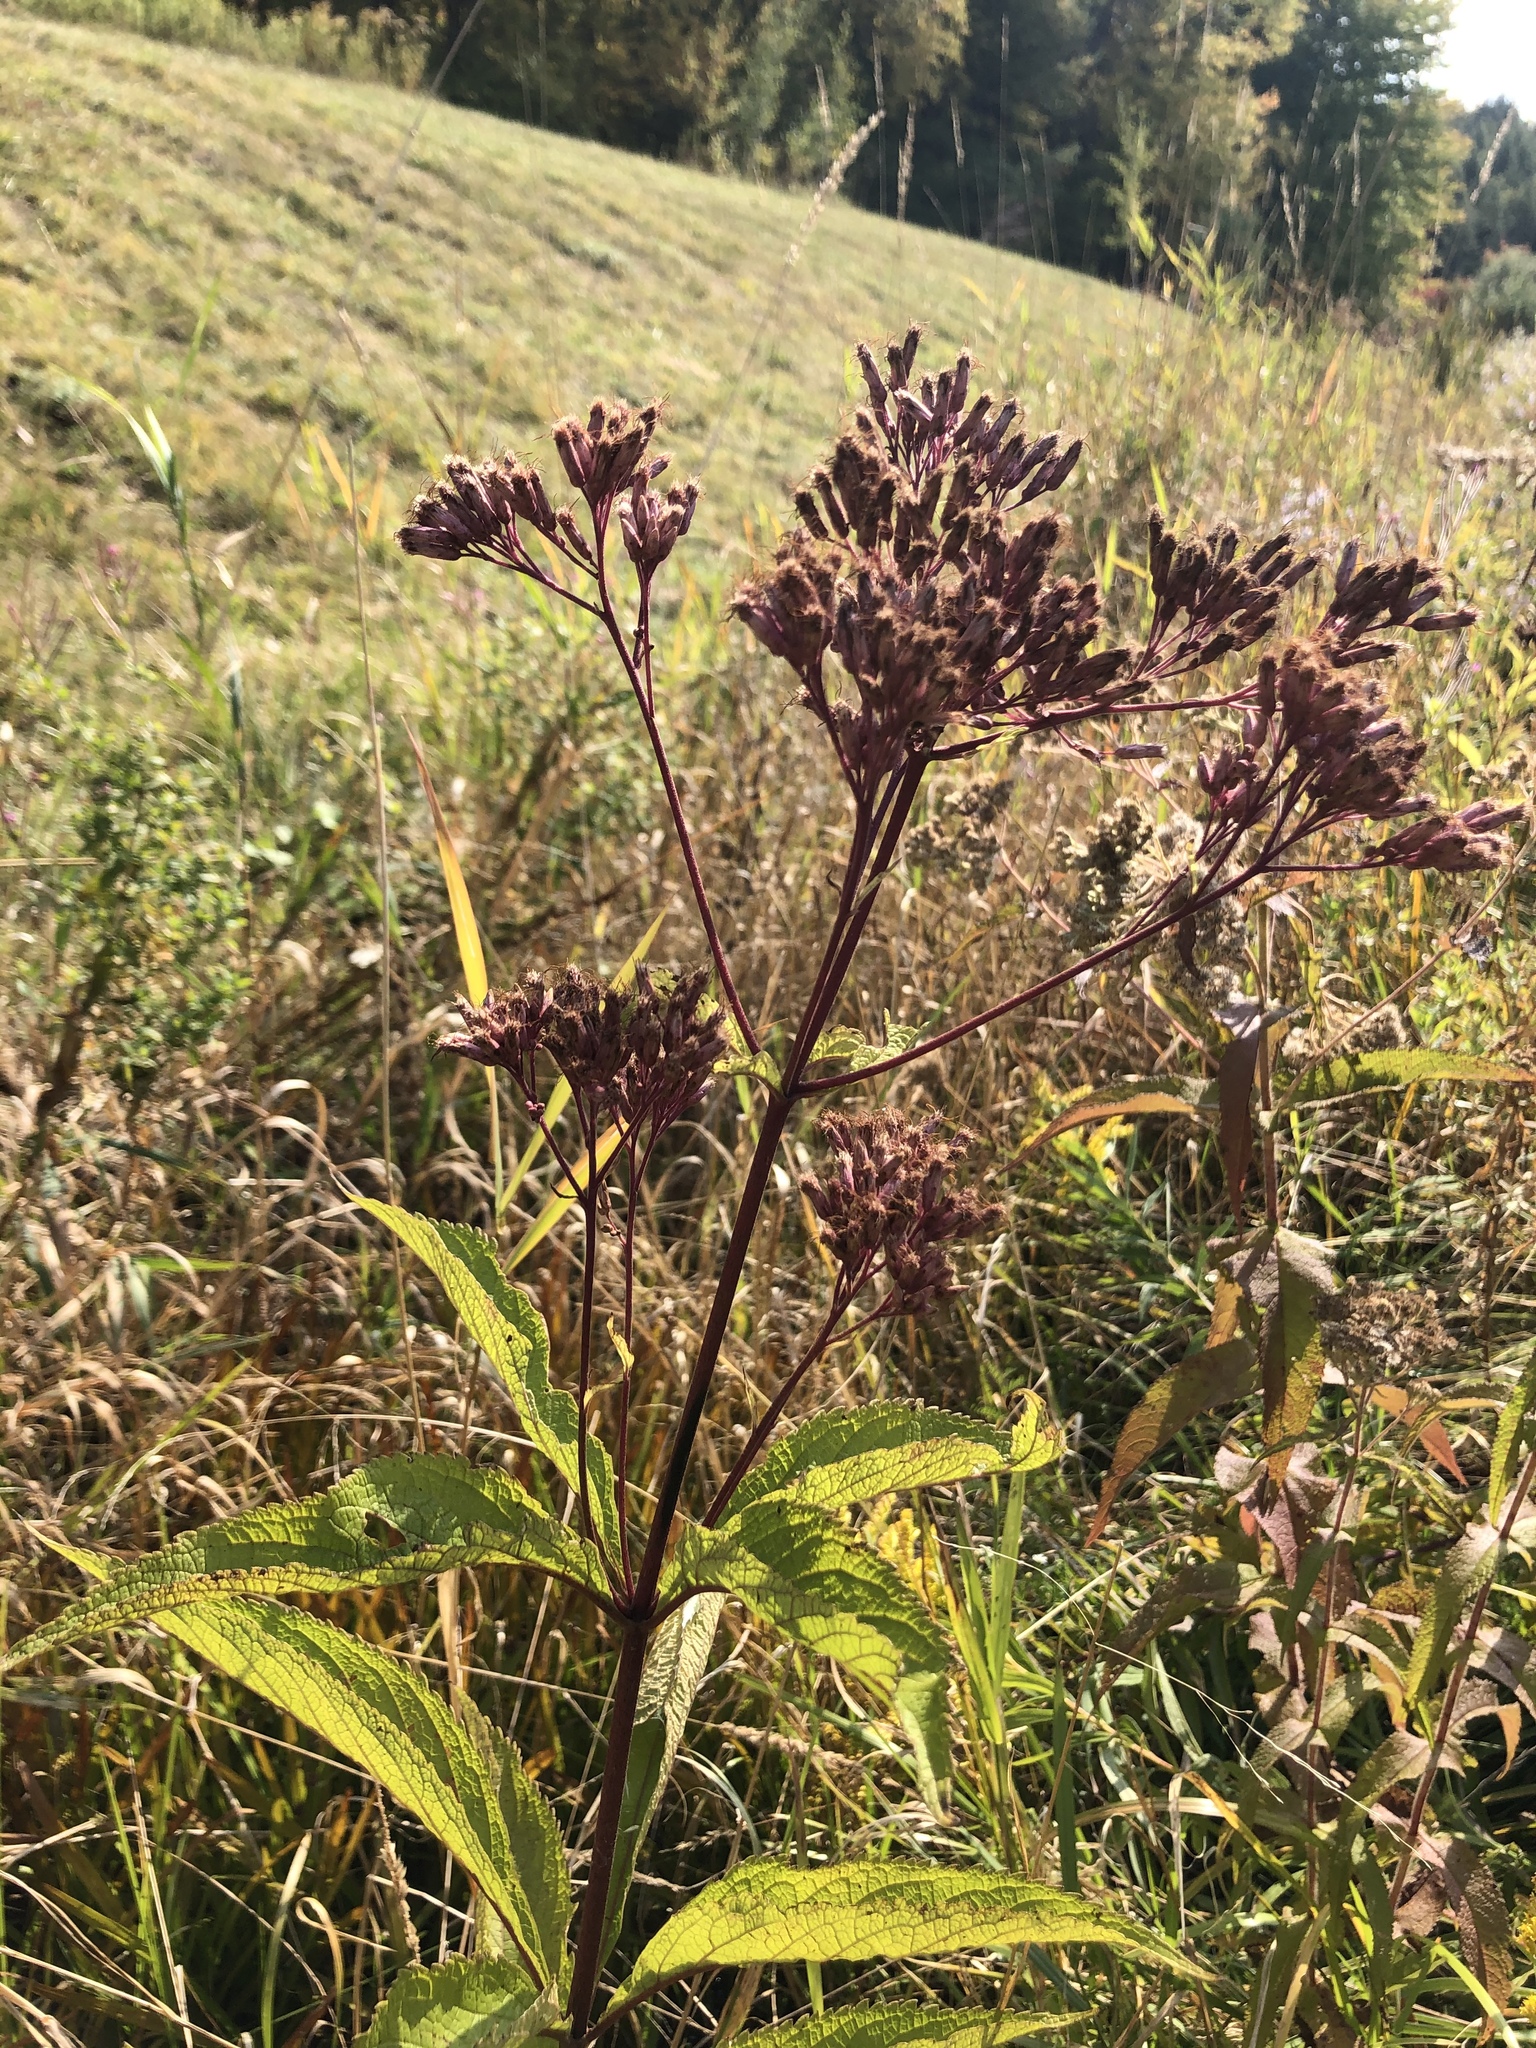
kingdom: Plantae
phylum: Tracheophyta
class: Magnoliopsida
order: Asterales
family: Asteraceae
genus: Eutrochium
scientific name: Eutrochium maculatum
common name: Spotted joe pye weed
